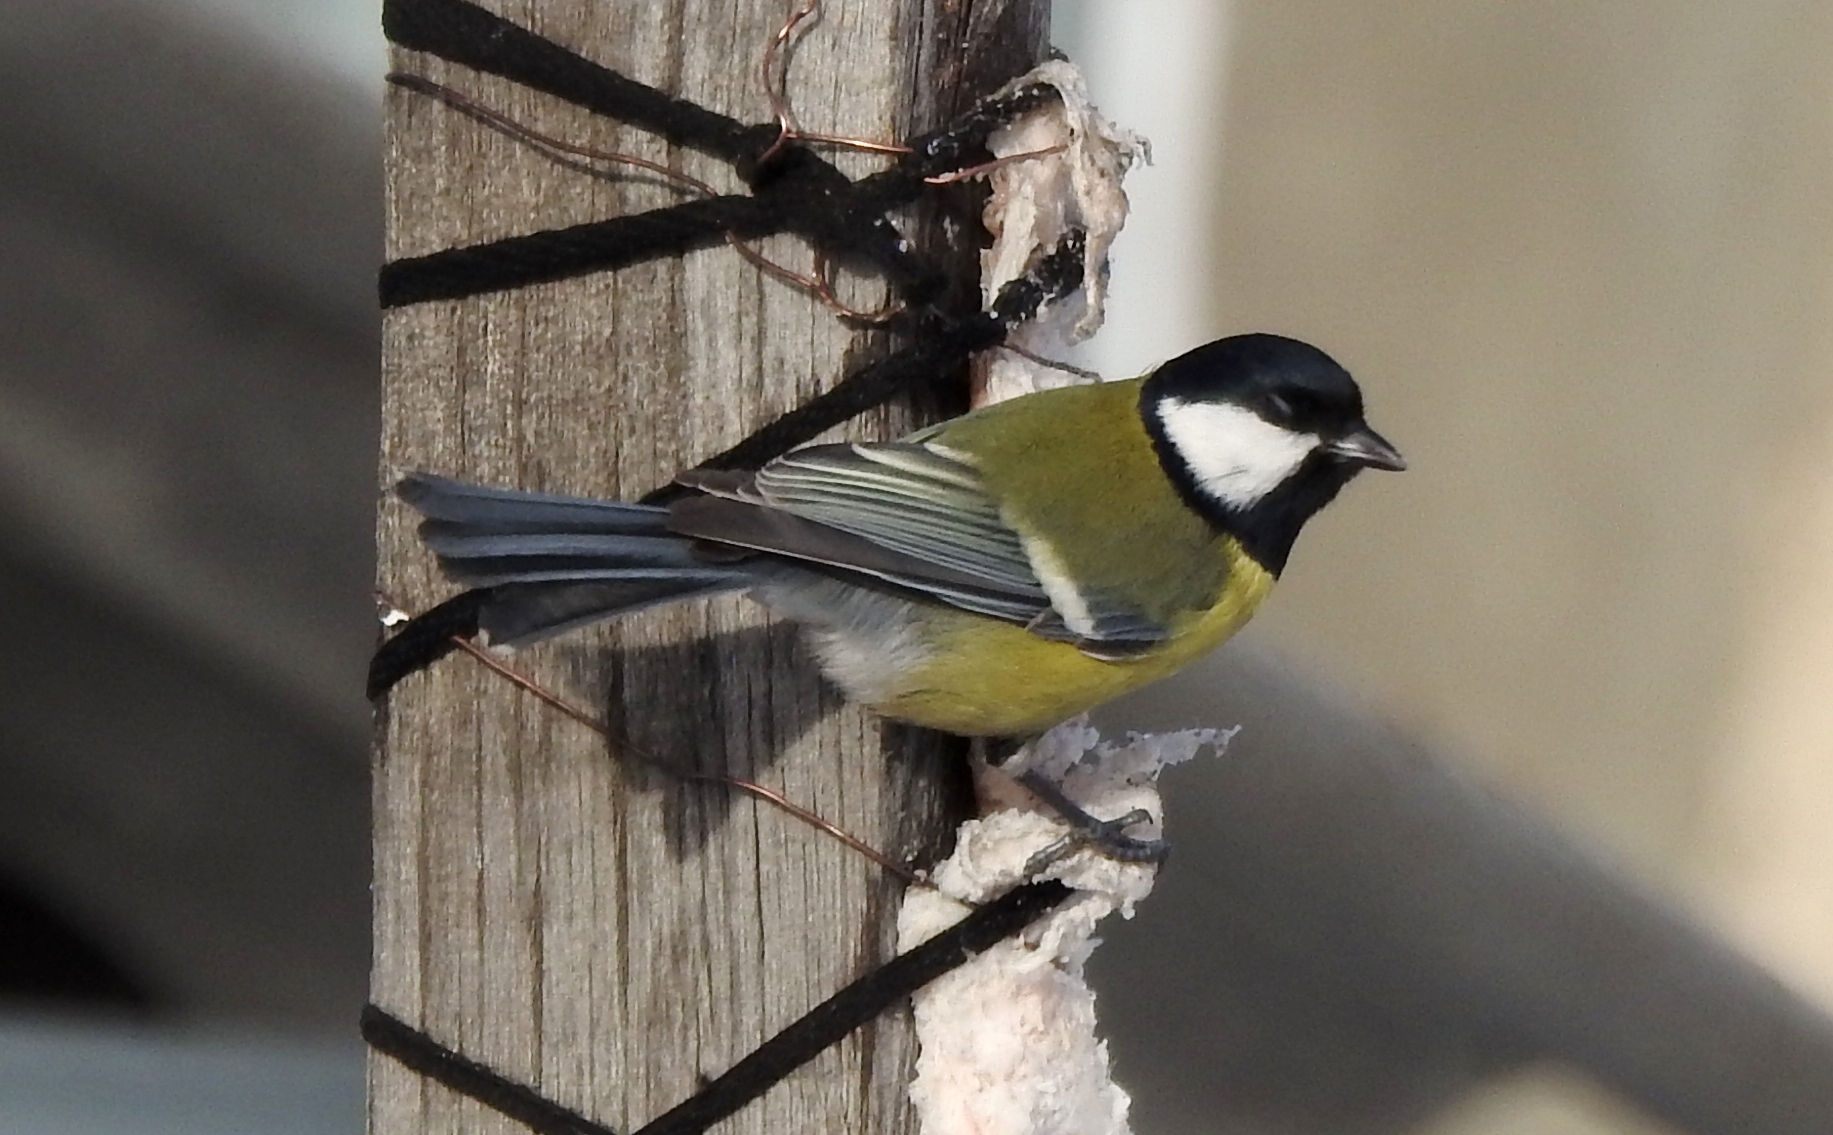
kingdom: Animalia
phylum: Chordata
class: Aves
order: Passeriformes
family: Paridae
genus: Parus
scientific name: Parus major
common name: Great tit
